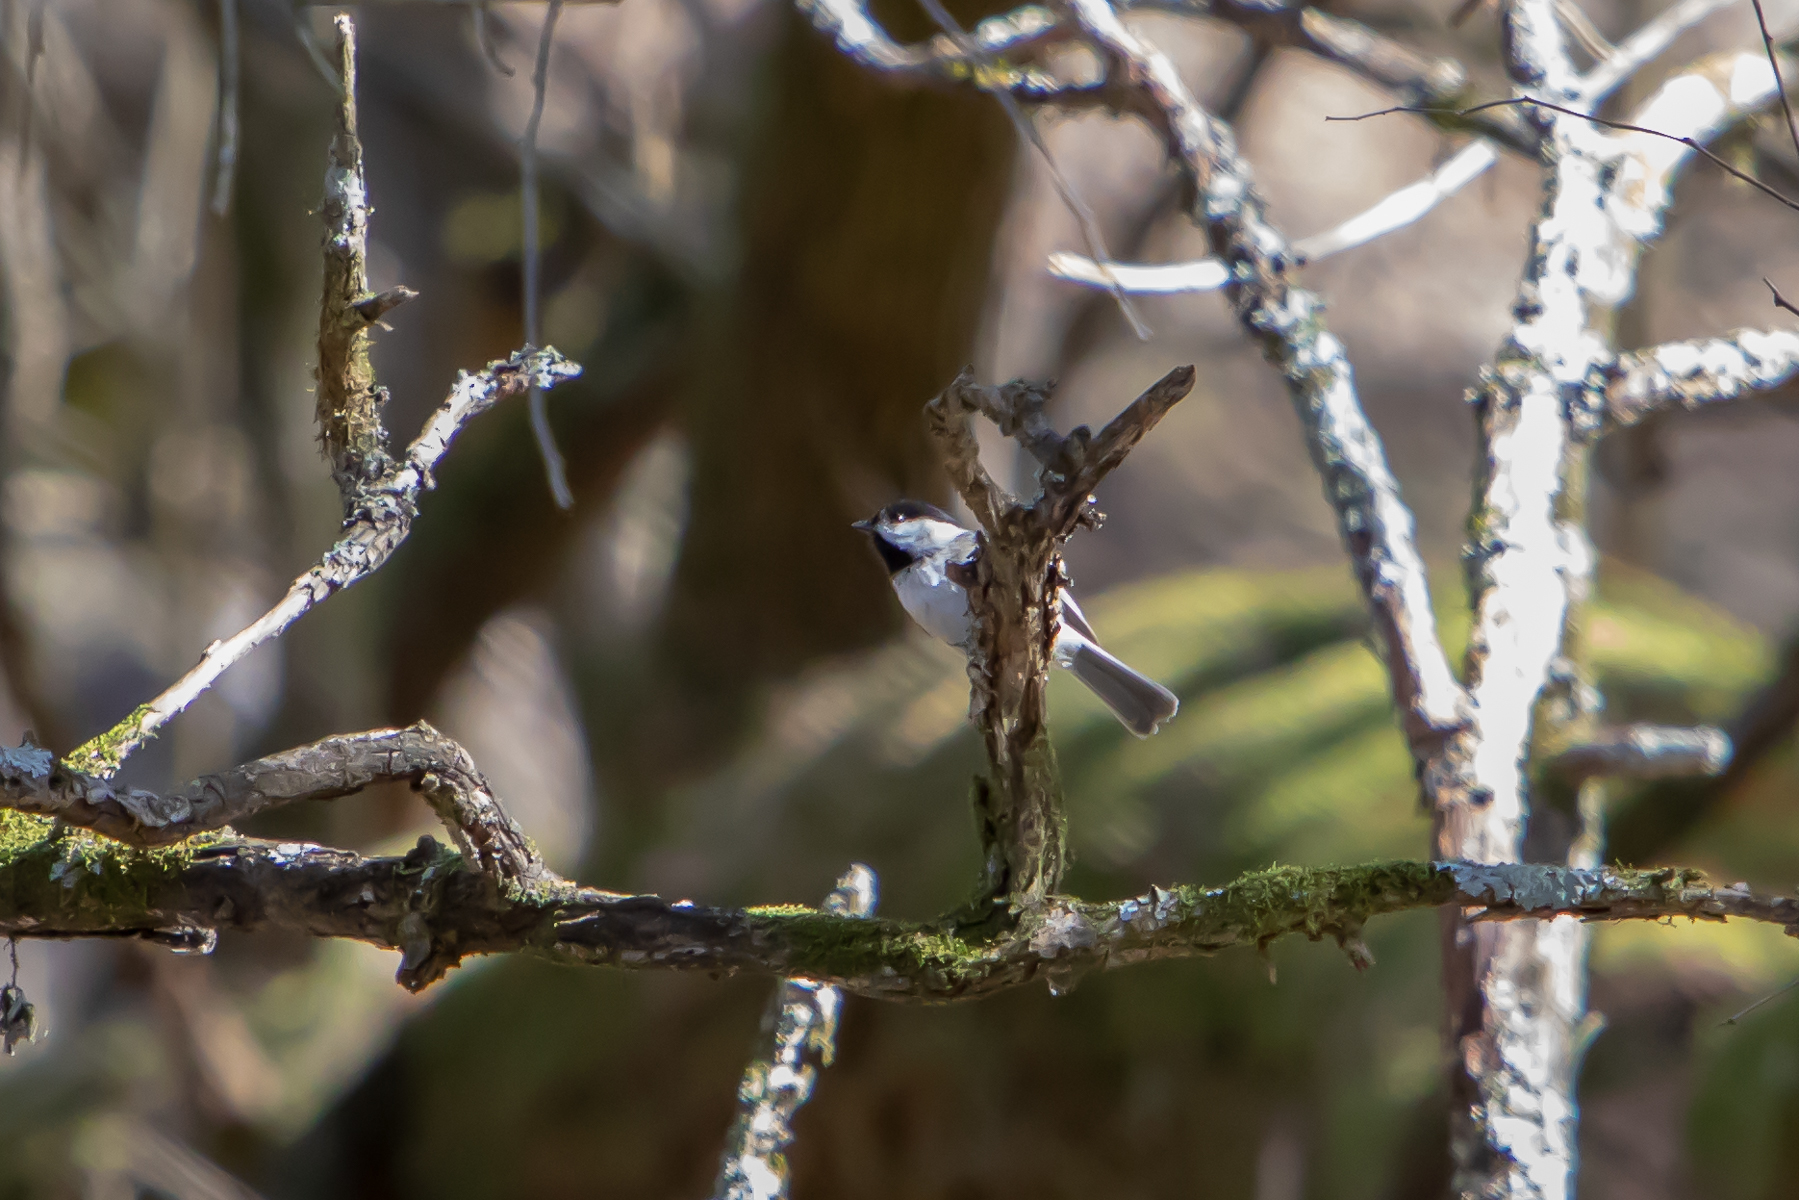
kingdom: Animalia
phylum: Chordata
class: Aves
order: Passeriformes
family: Paridae
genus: Poecile
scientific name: Poecile carolinensis
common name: Carolina chickadee
